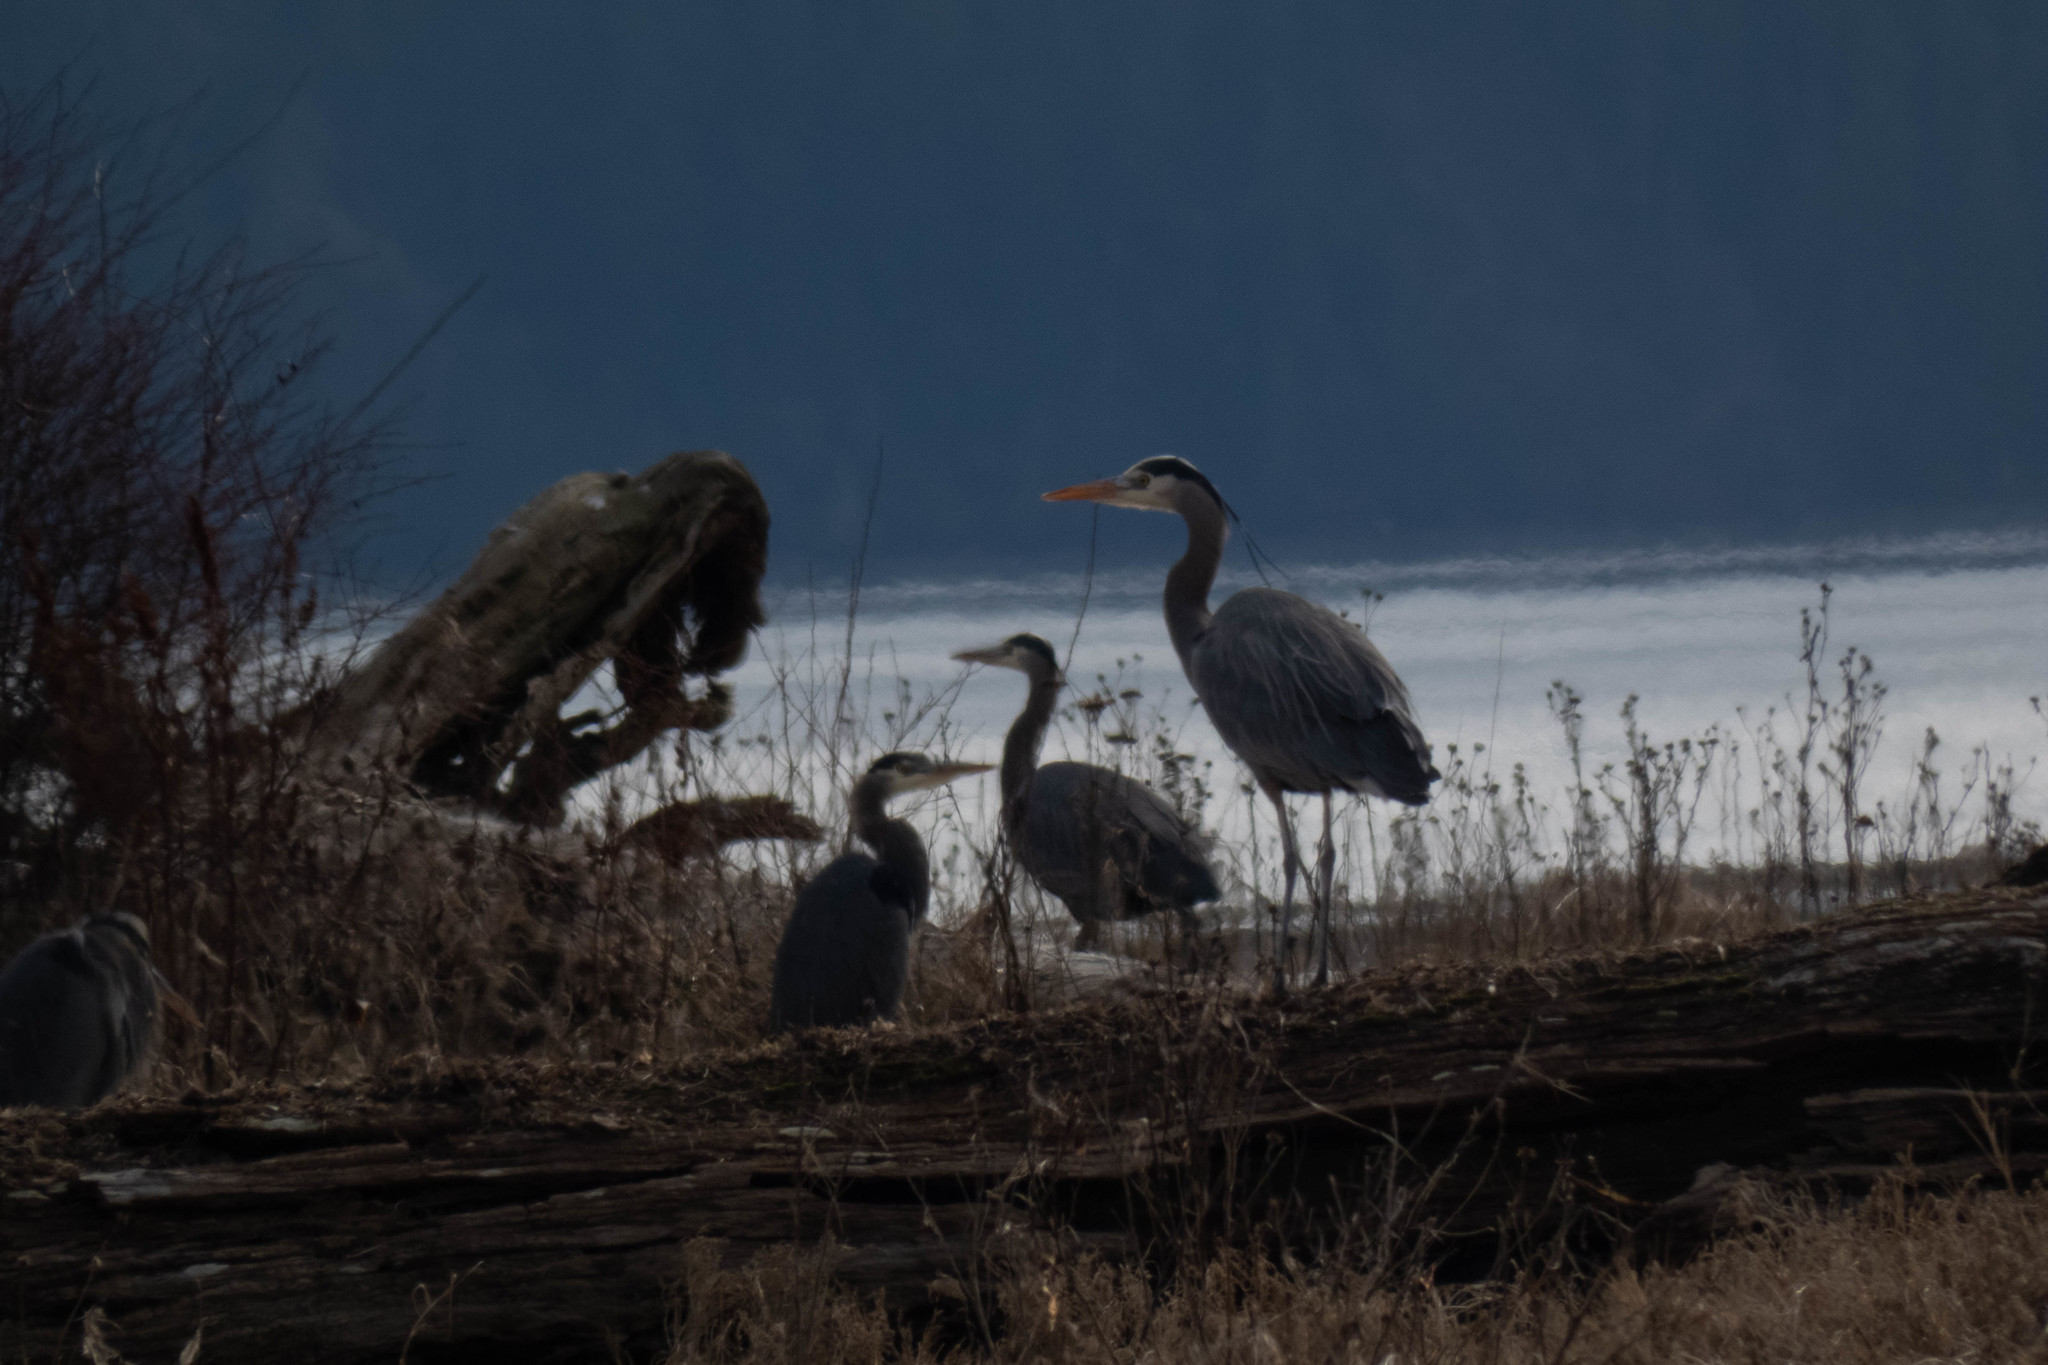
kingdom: Animalia
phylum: Chordata
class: Aves
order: Pelecaniformes
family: Ardeidae
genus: Ardea
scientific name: Ardea herodias
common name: Great blue heron
